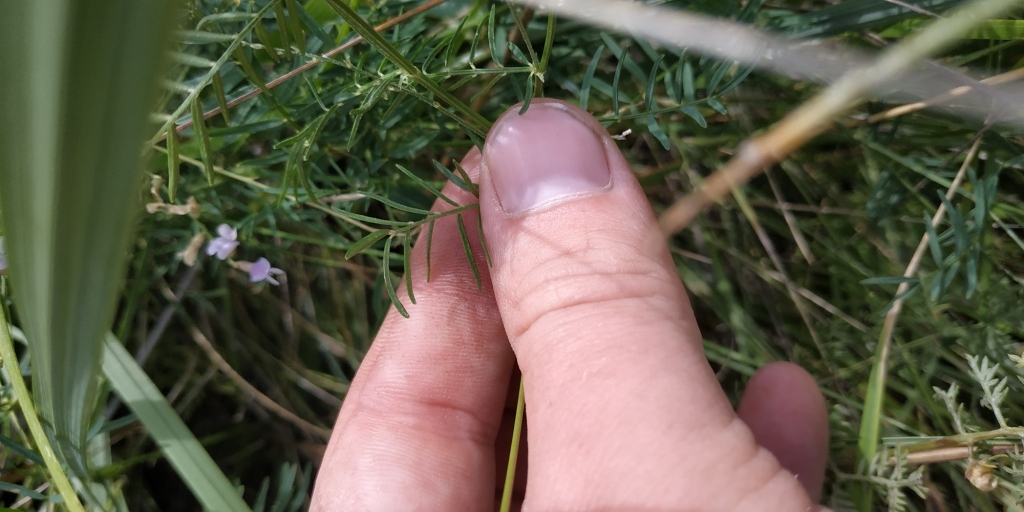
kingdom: Plantae
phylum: Tracheophyta
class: Magnoliopsida
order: Fabales
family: Fabaceae
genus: Astragalus
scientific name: Astragalus sulcatus
